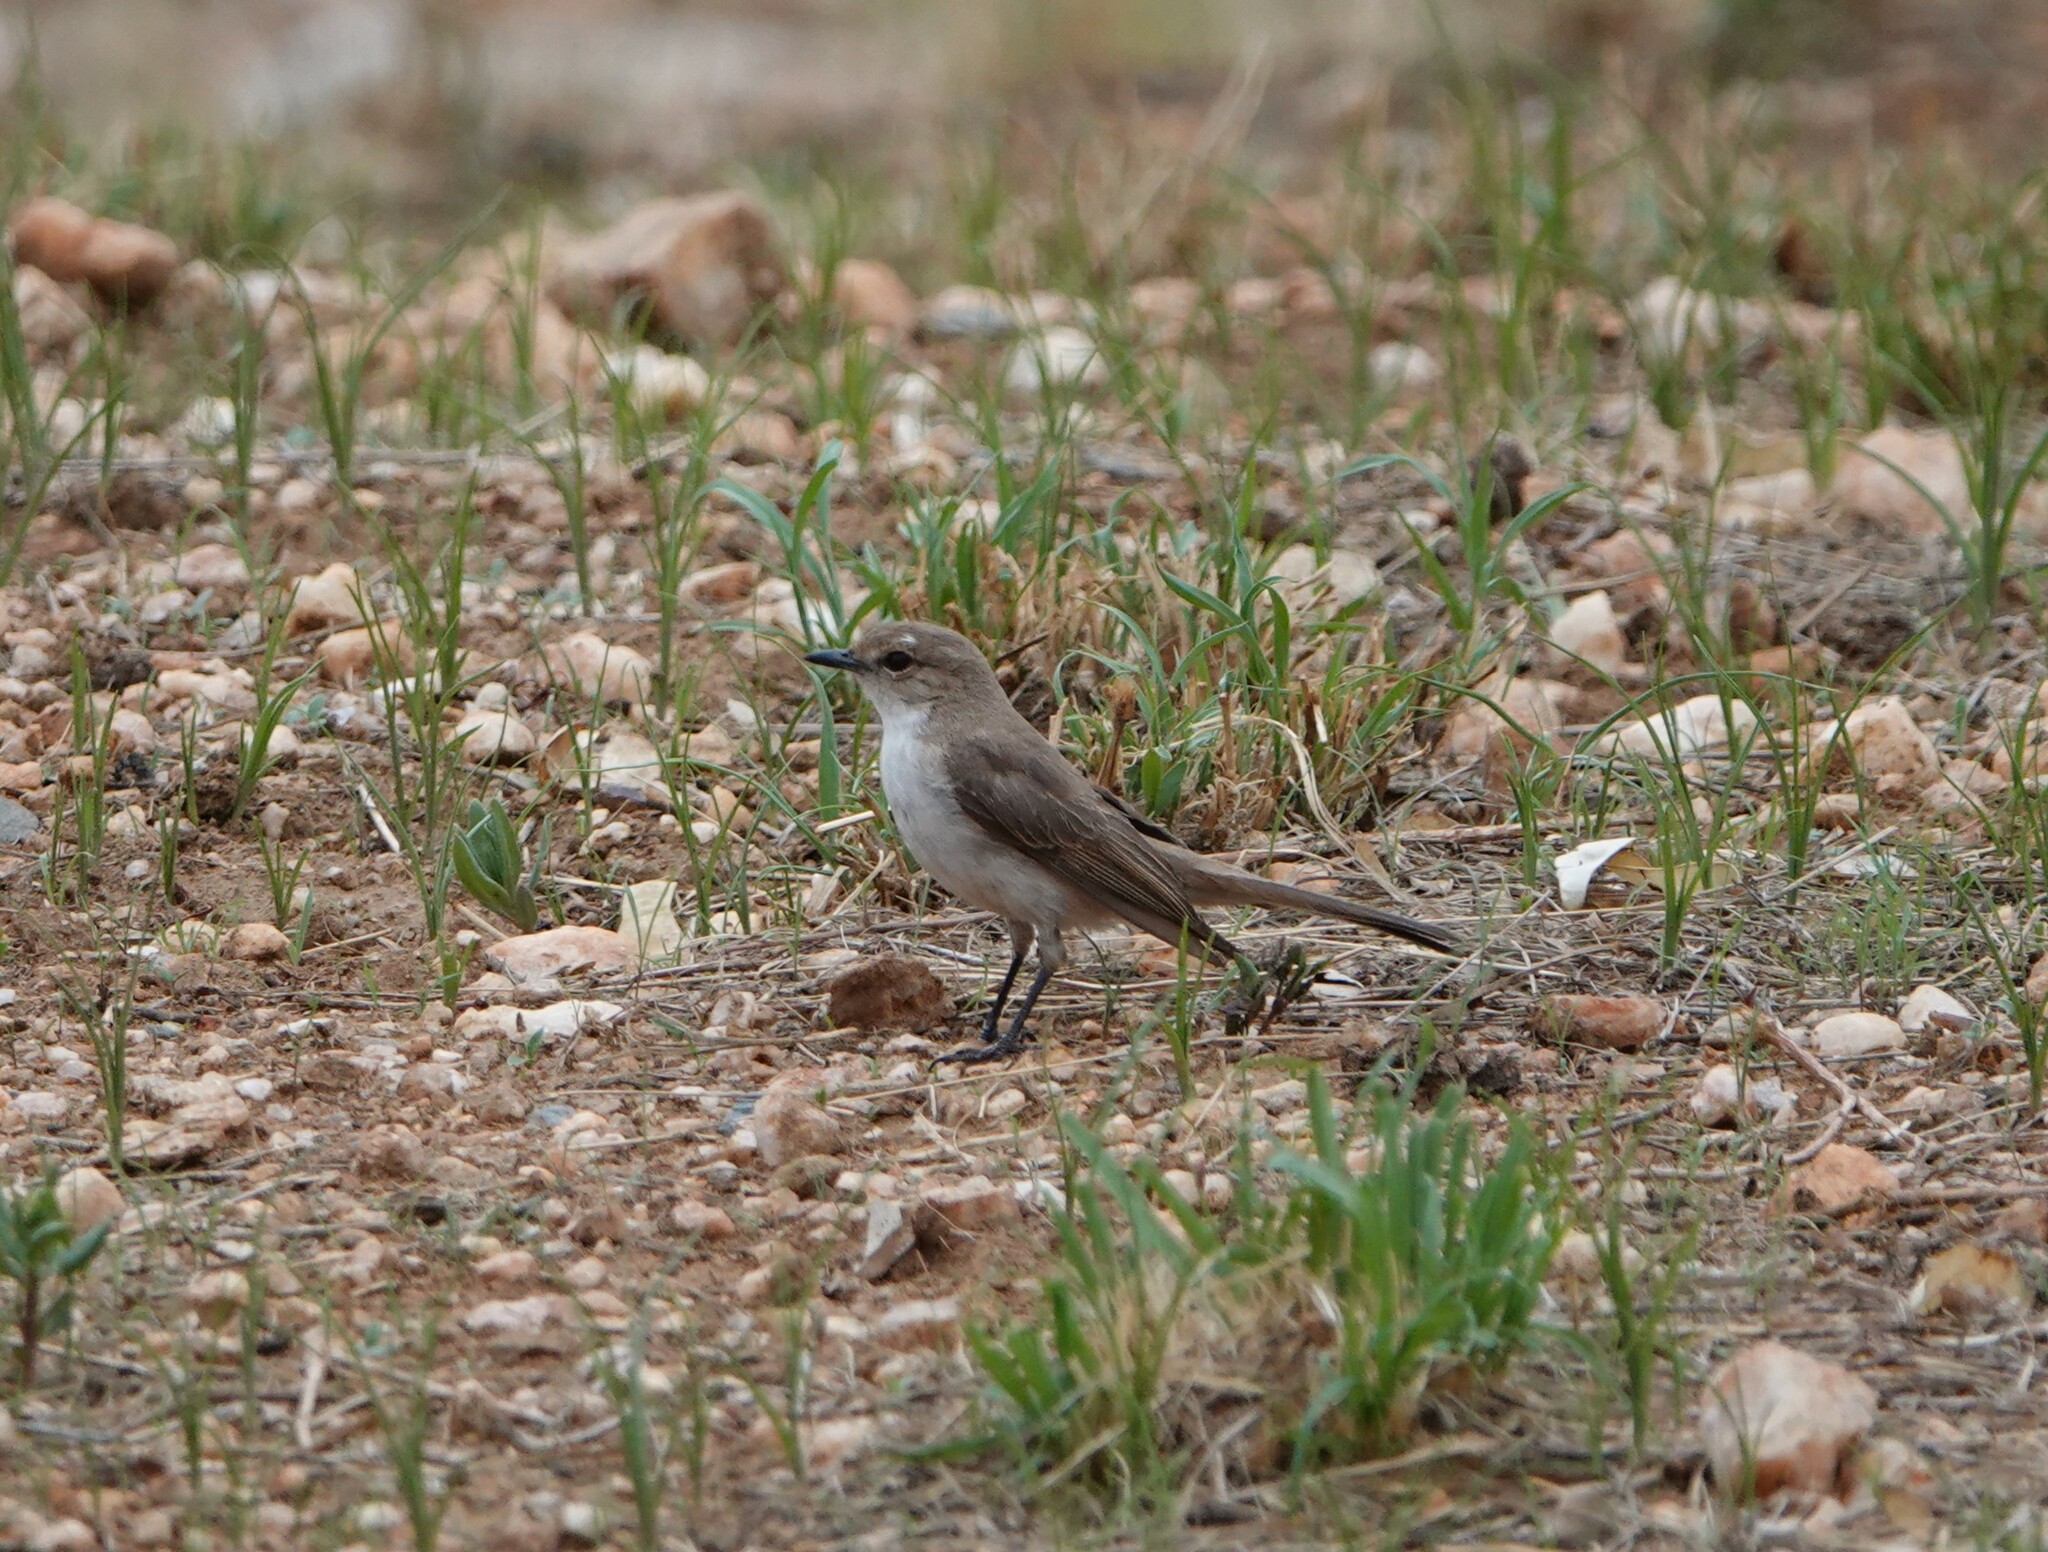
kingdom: Animalia
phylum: Chordata
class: Aves
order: Passeriformes
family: Muscicapidae
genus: Bradornis
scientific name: Bradornis mariquensis
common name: Marico flycatcher
